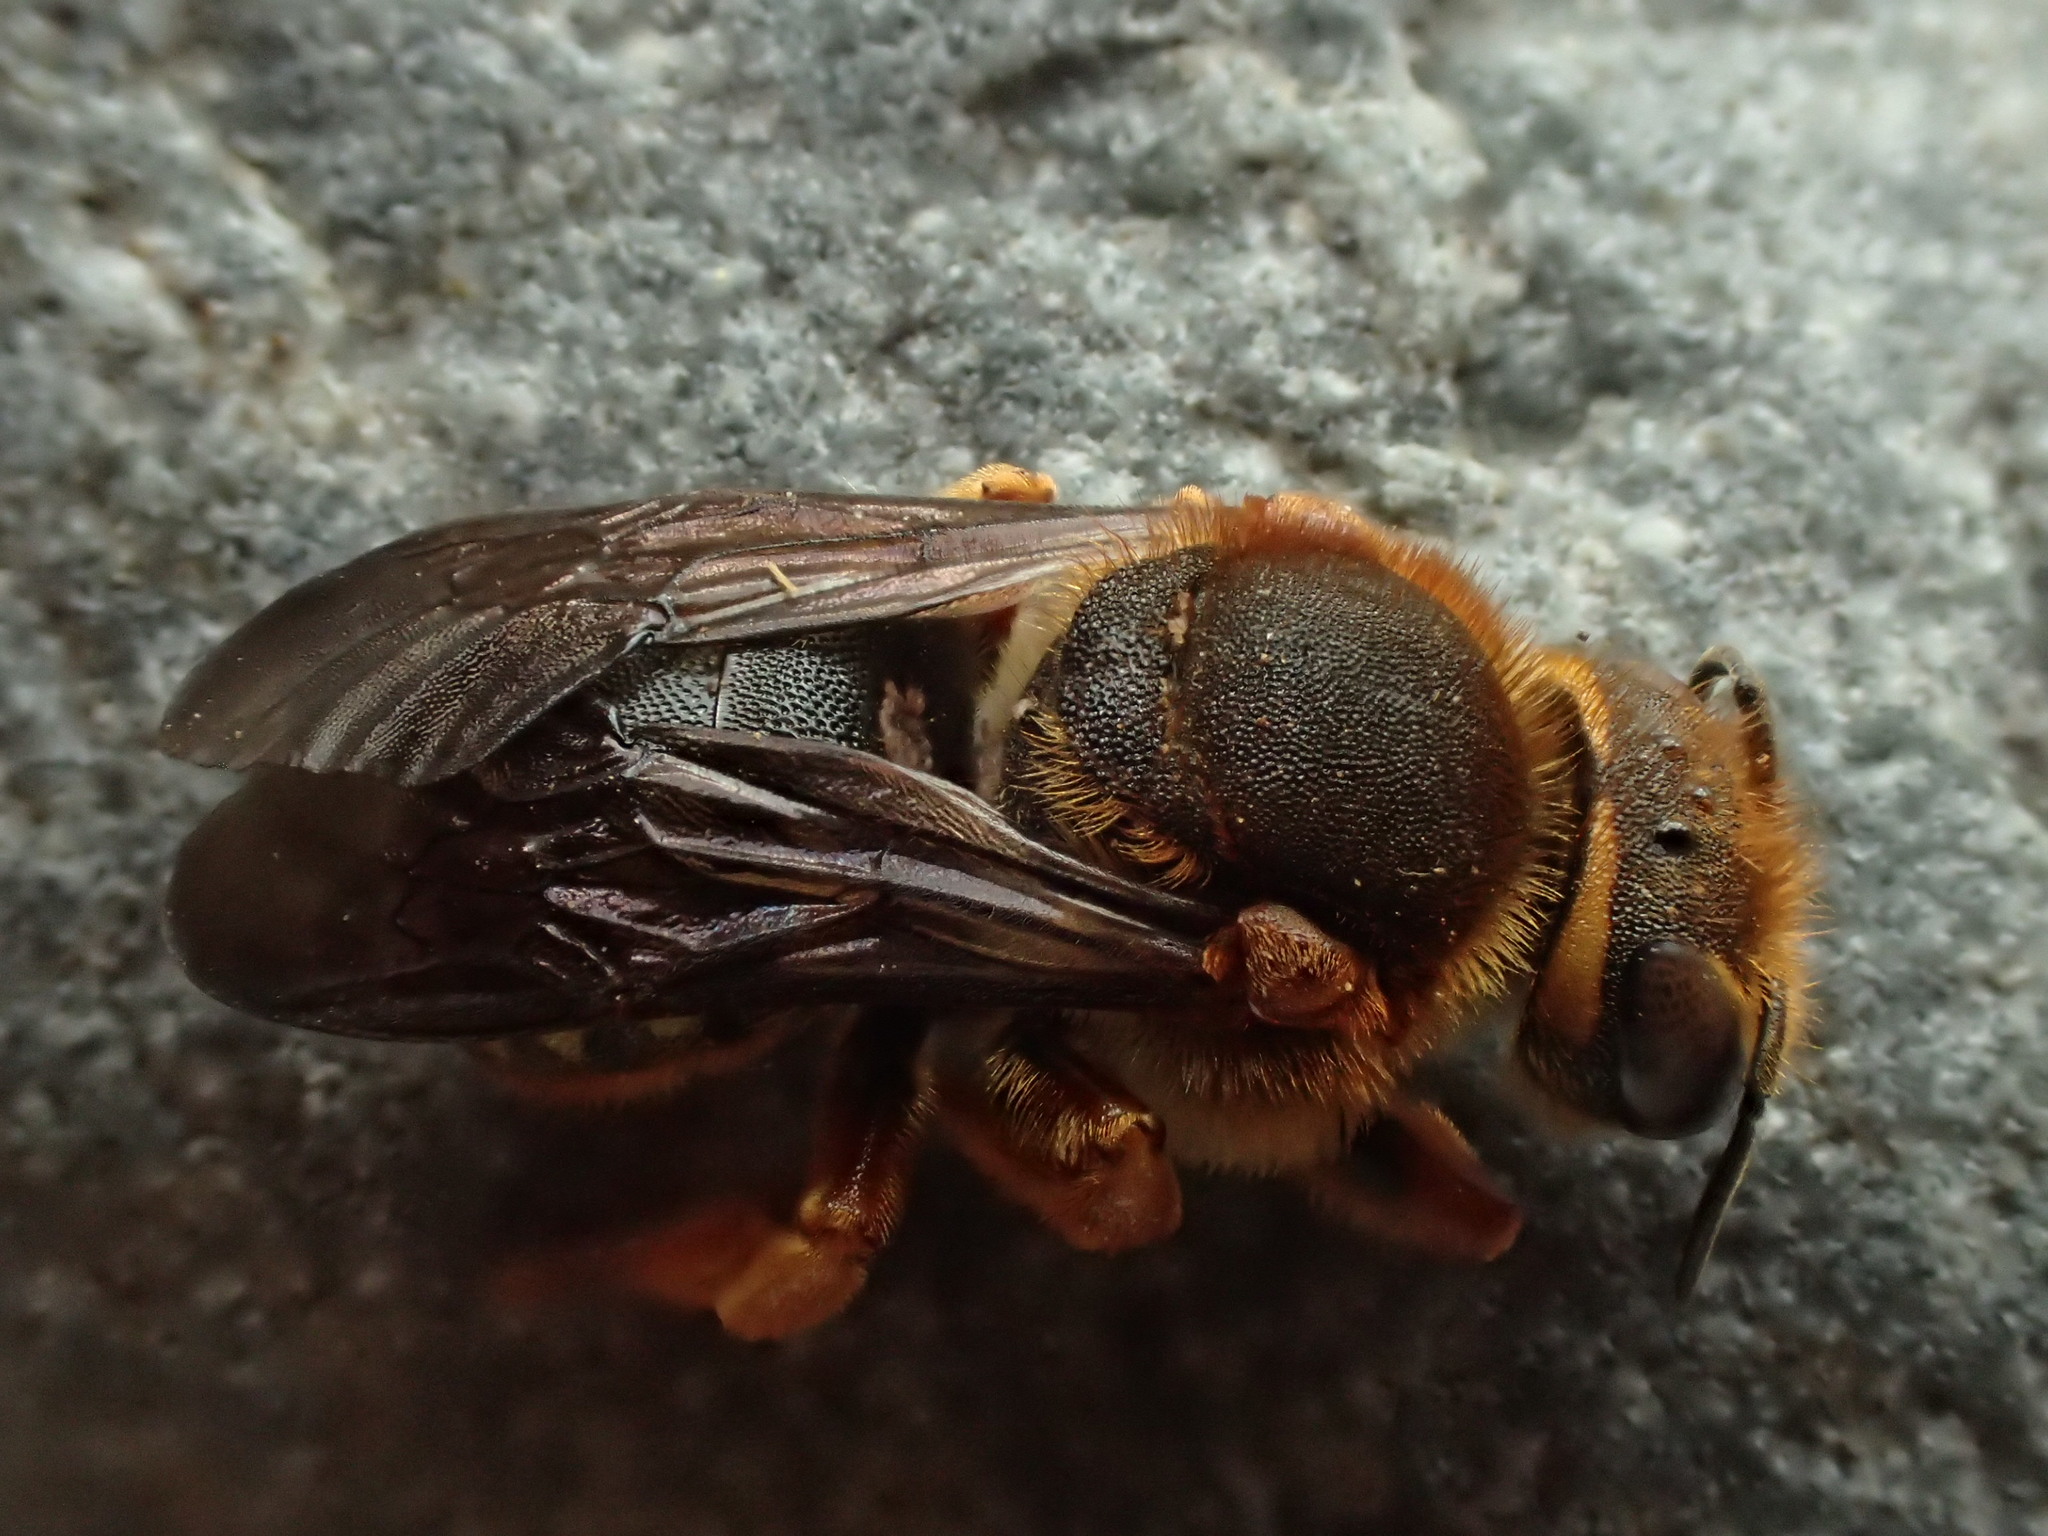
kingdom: Animalia
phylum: Arthropoda
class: Insecta
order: Hymenoptera
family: Megachilidae
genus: Rhodanthidium
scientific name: Rhodanthidium septemdentatum
